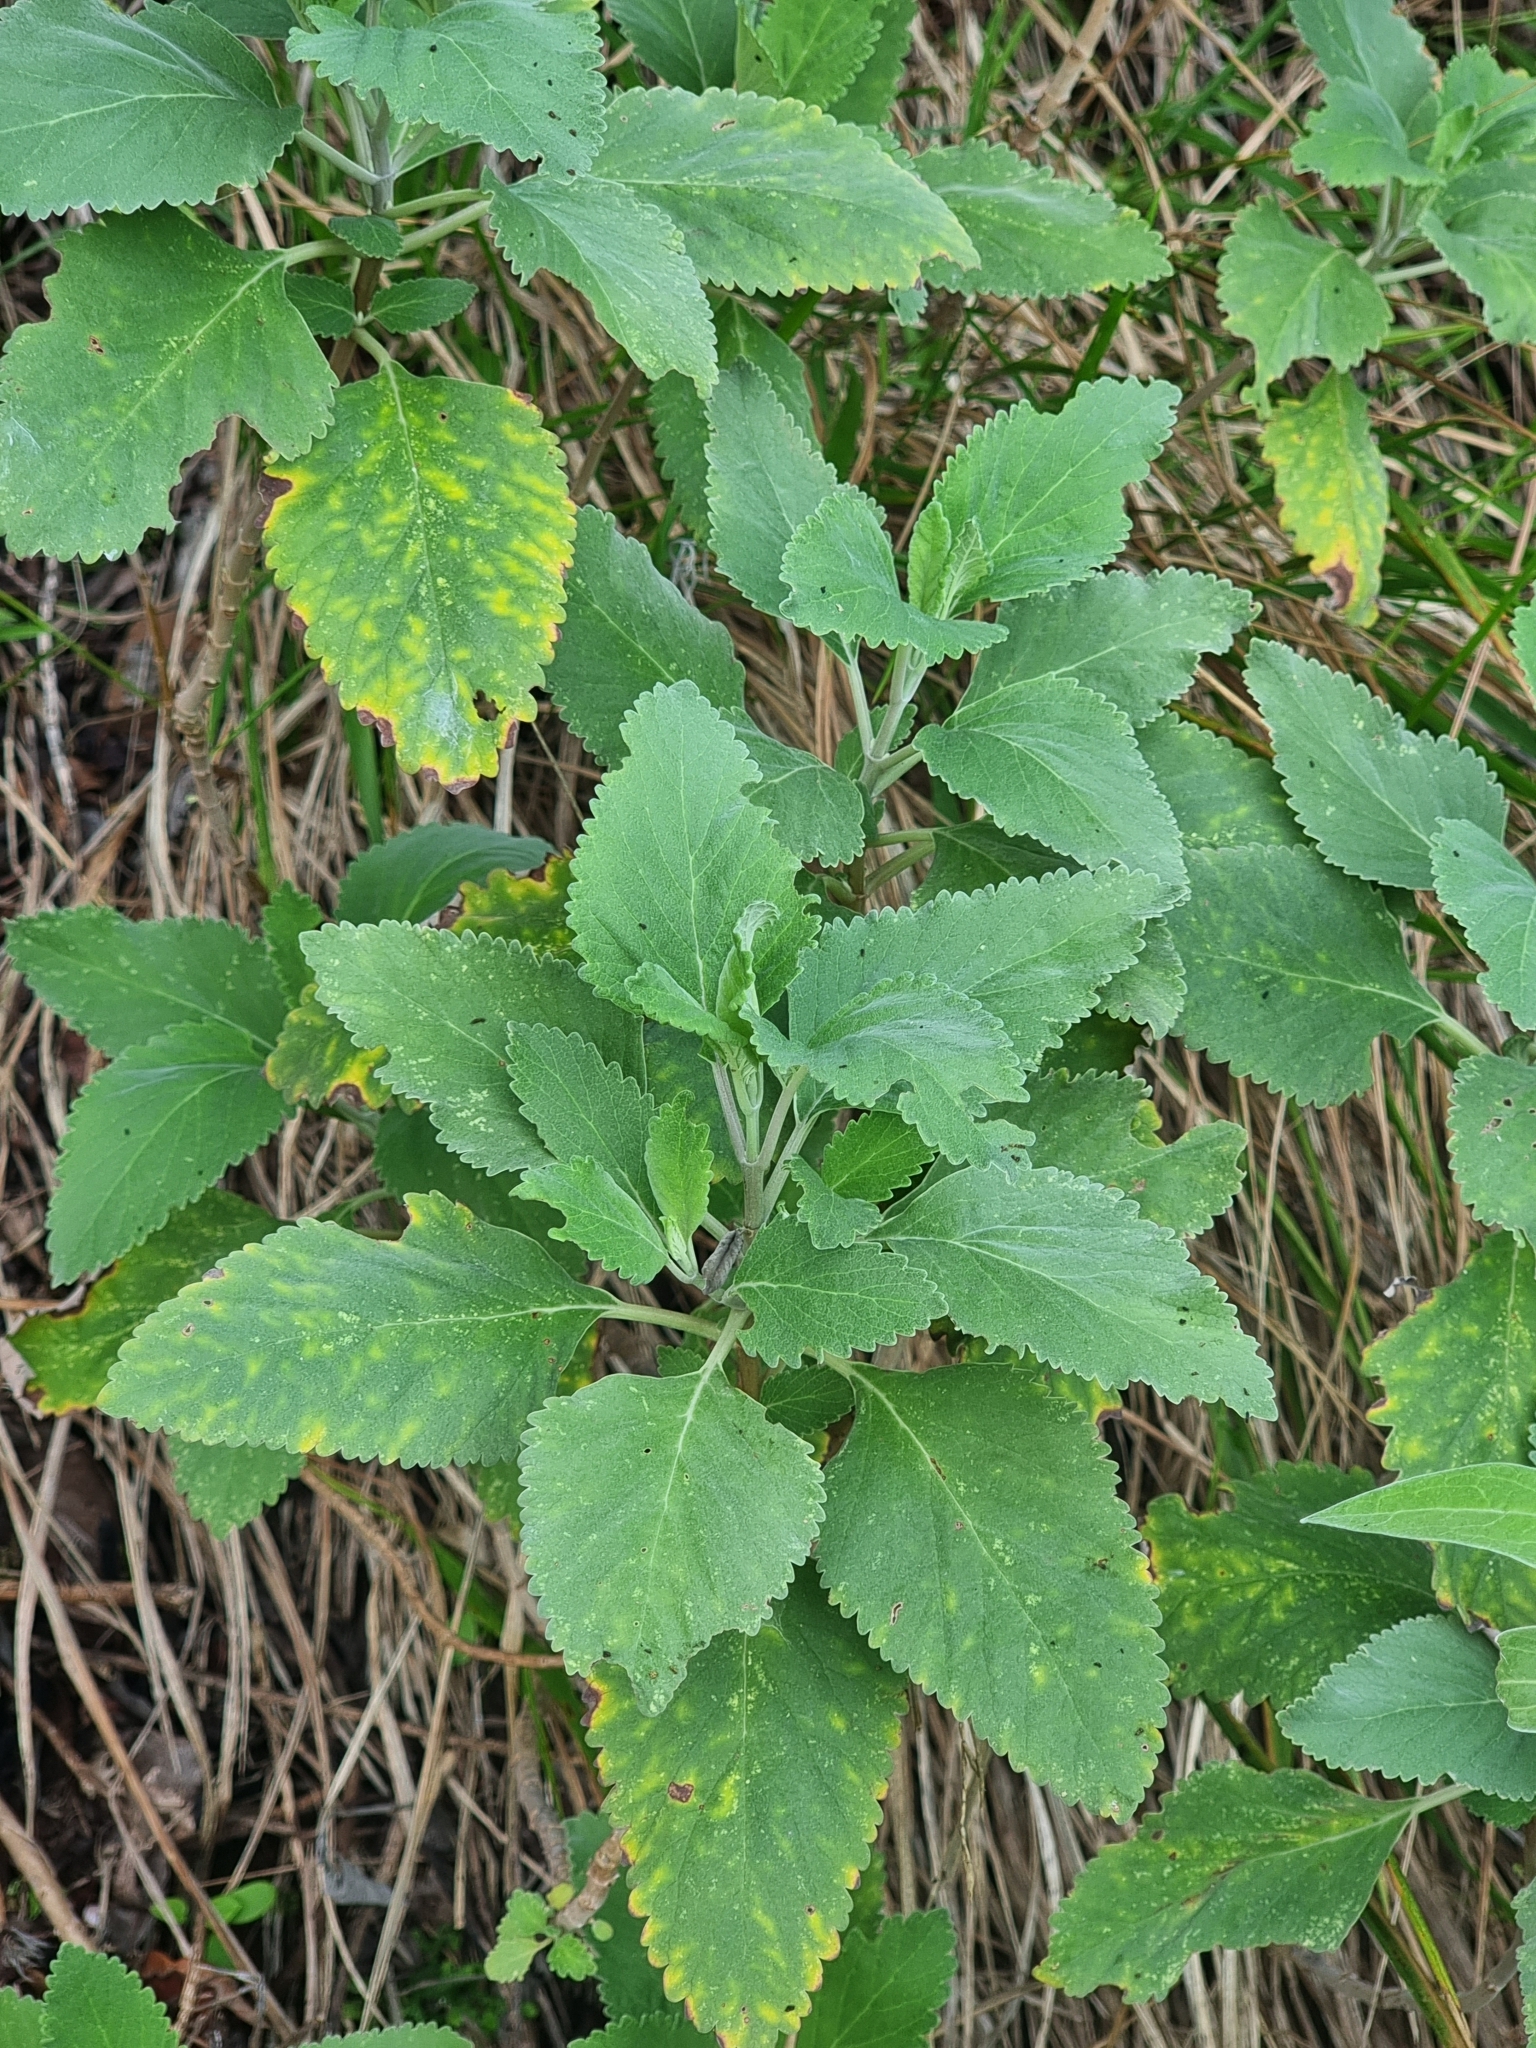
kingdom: Plantae
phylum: Tracheophyta
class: Magnoliopsida
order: Lamiales
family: Lamiaceae
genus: Teucrium
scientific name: Teucrium betonicum
